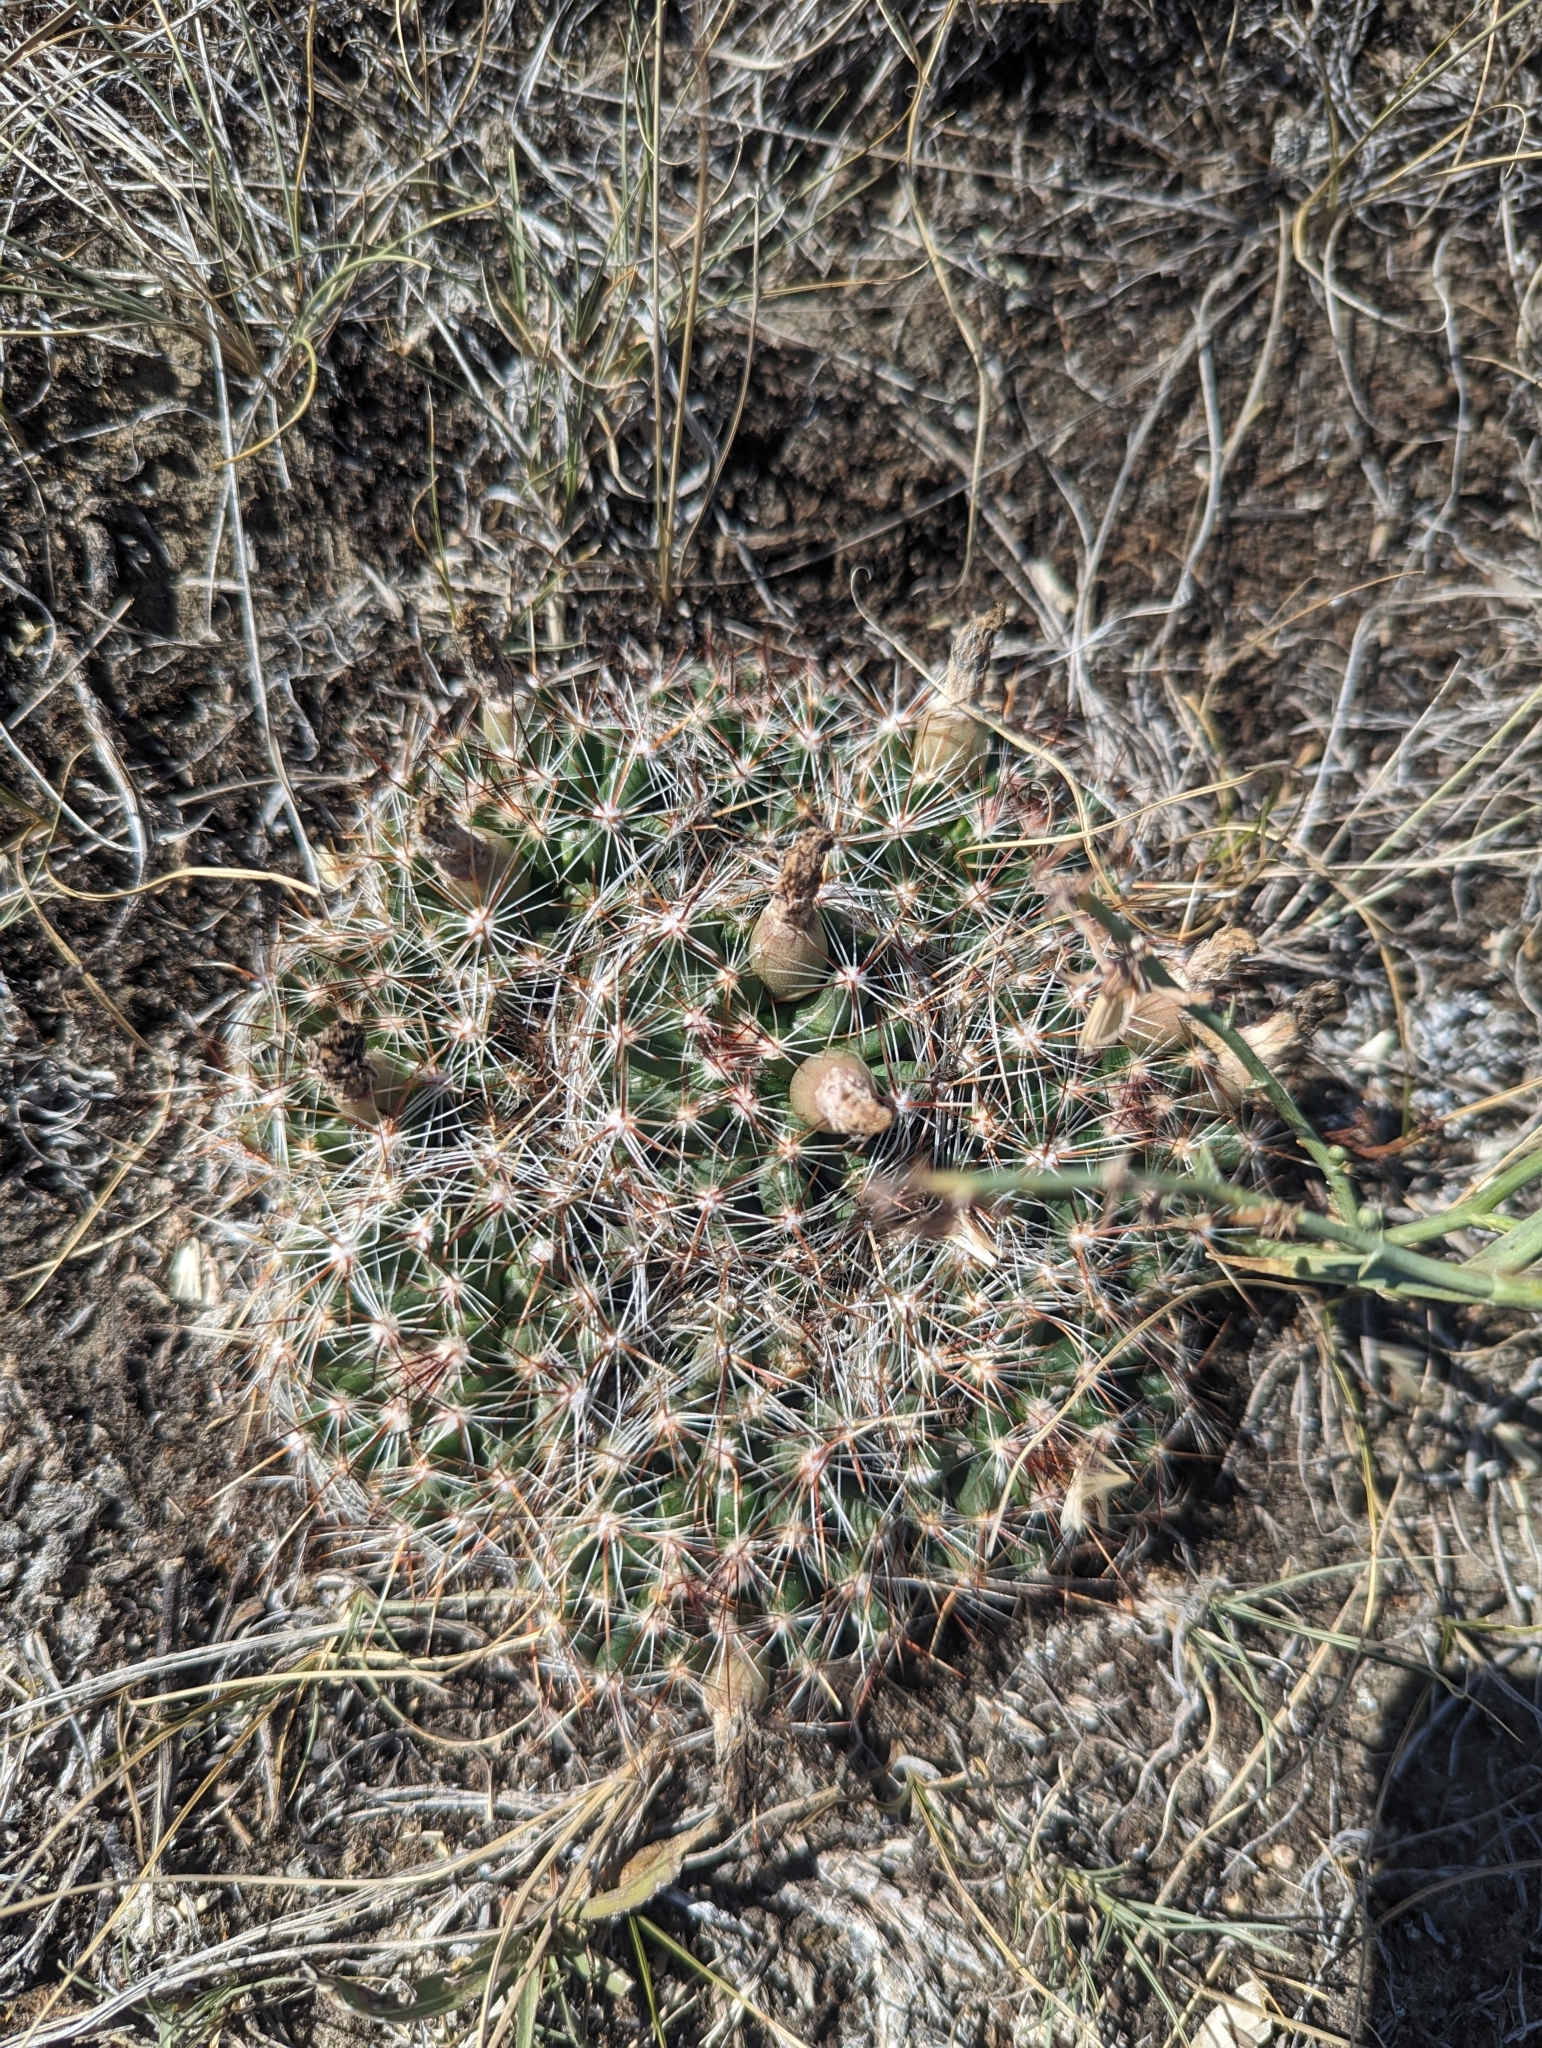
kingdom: Plantae
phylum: Tracheophyta
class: Magnoliopsida
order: Caryophyllales
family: Cactaceae
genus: Pelecyphora
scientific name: Pelecyphora vivipara
